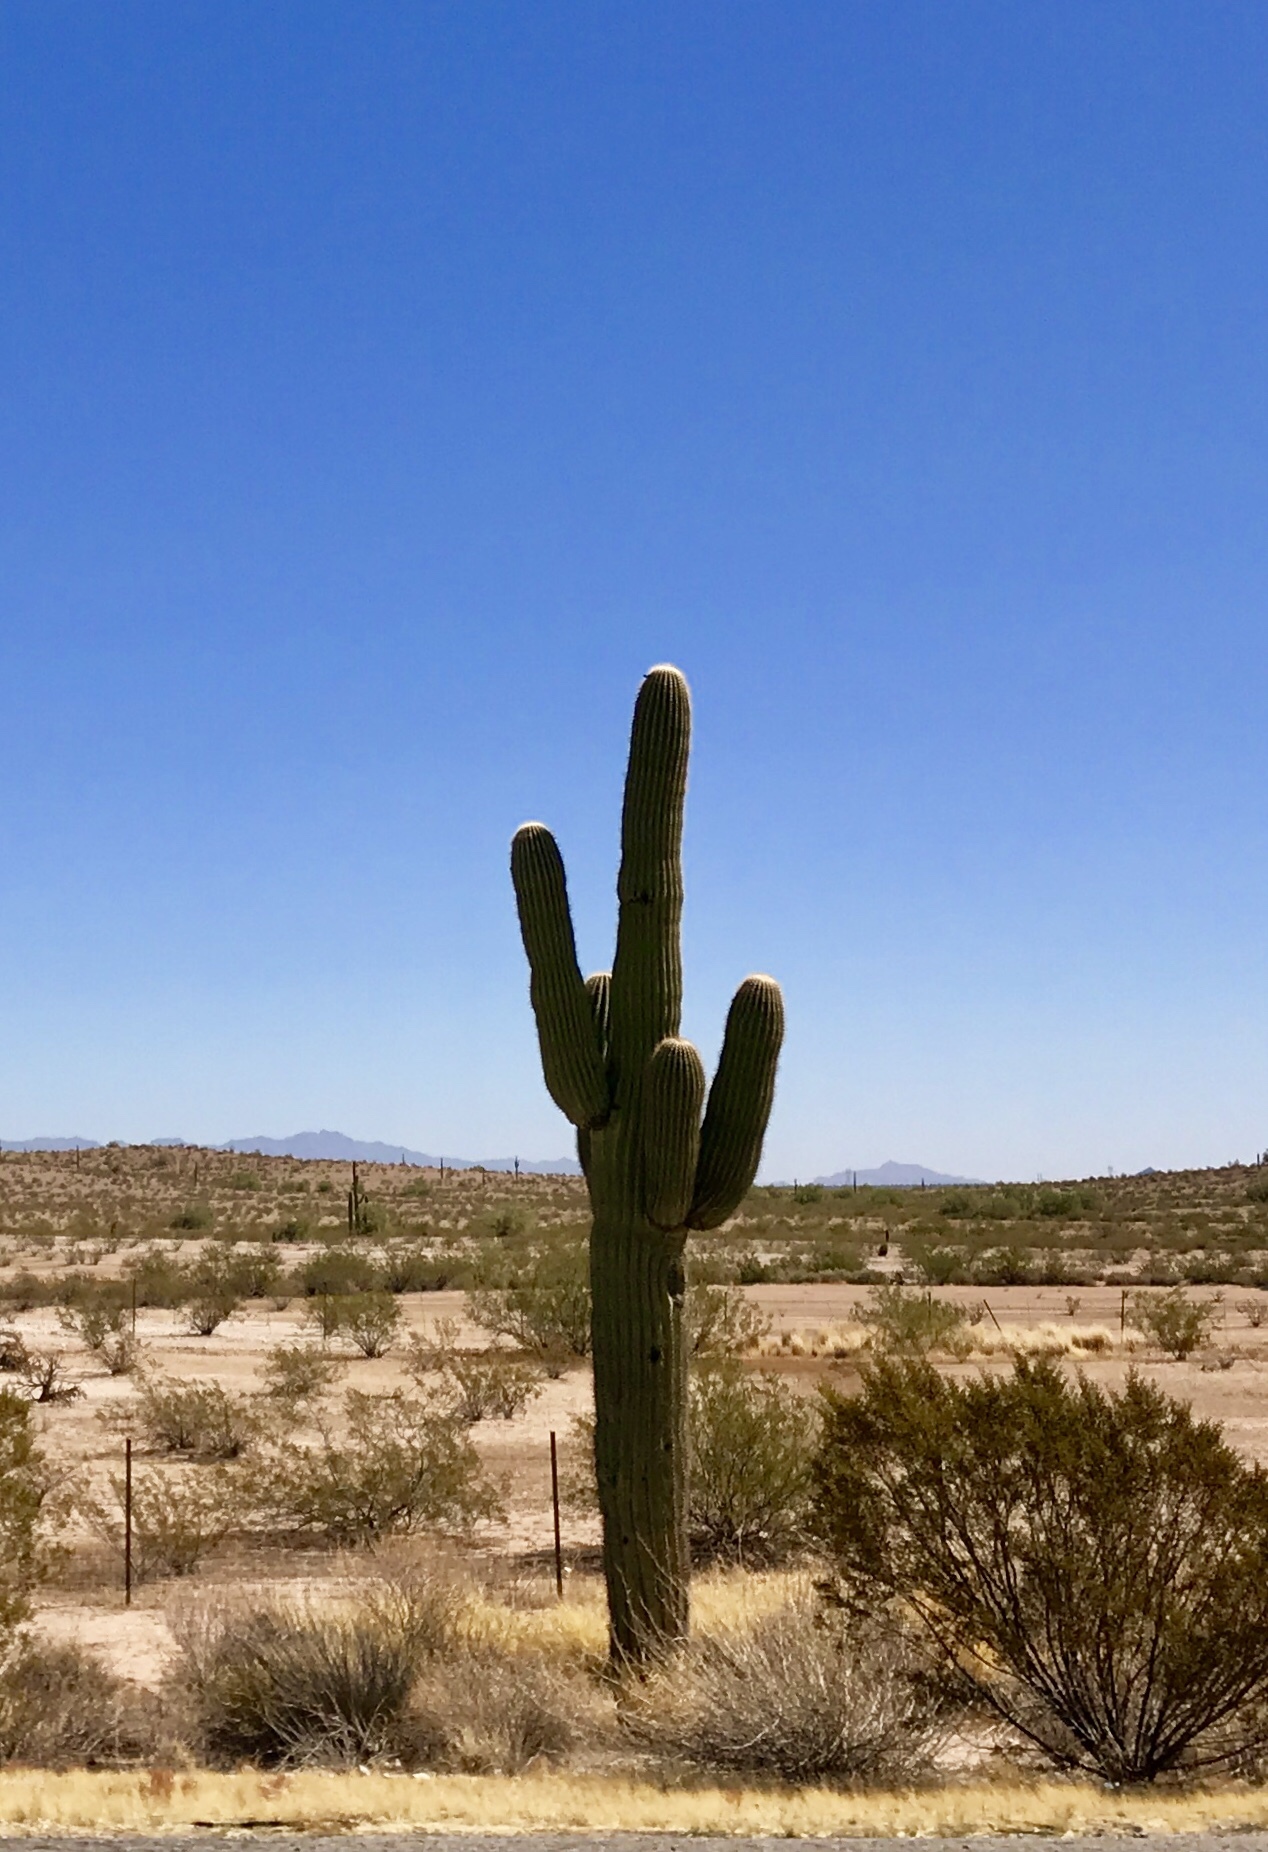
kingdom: Plantae
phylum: Tracheophyta
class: Magnoliopsida
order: Caryophyllales
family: Cactaceae
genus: Carnegiea
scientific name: Carnegiea gigantea
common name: Saguaro
